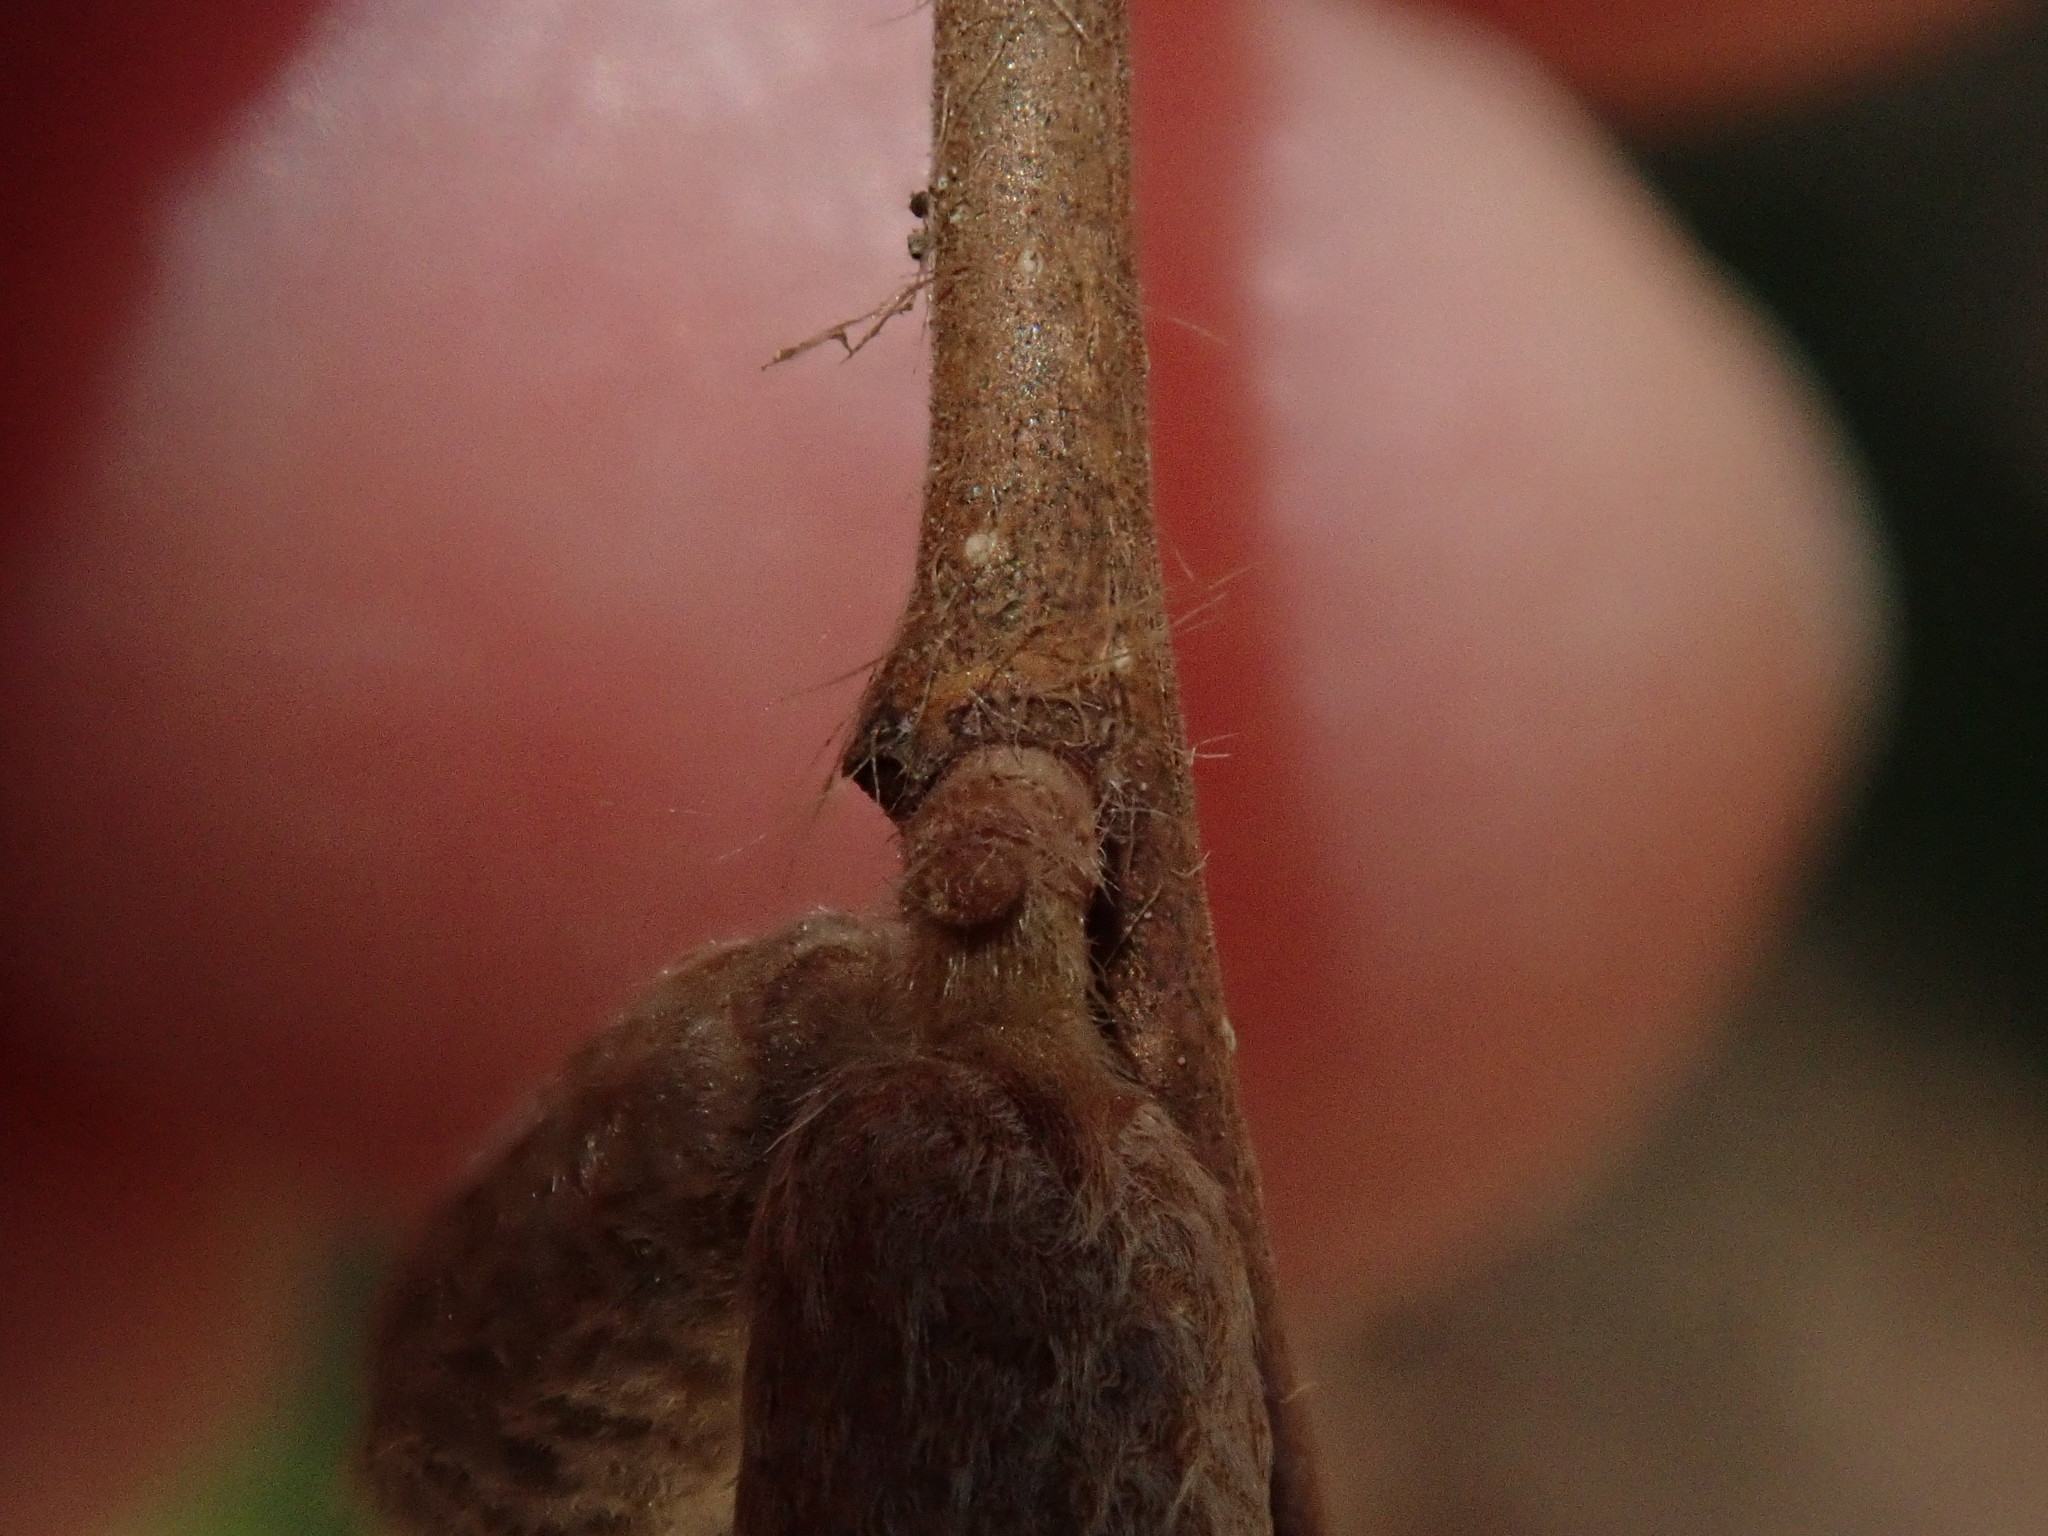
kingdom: Plantae
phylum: Tracheophyta
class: Magnoliopsida
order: Fagales
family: Betulaceae
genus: Corylus
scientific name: Corylus cornuta
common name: Beaked hazel
